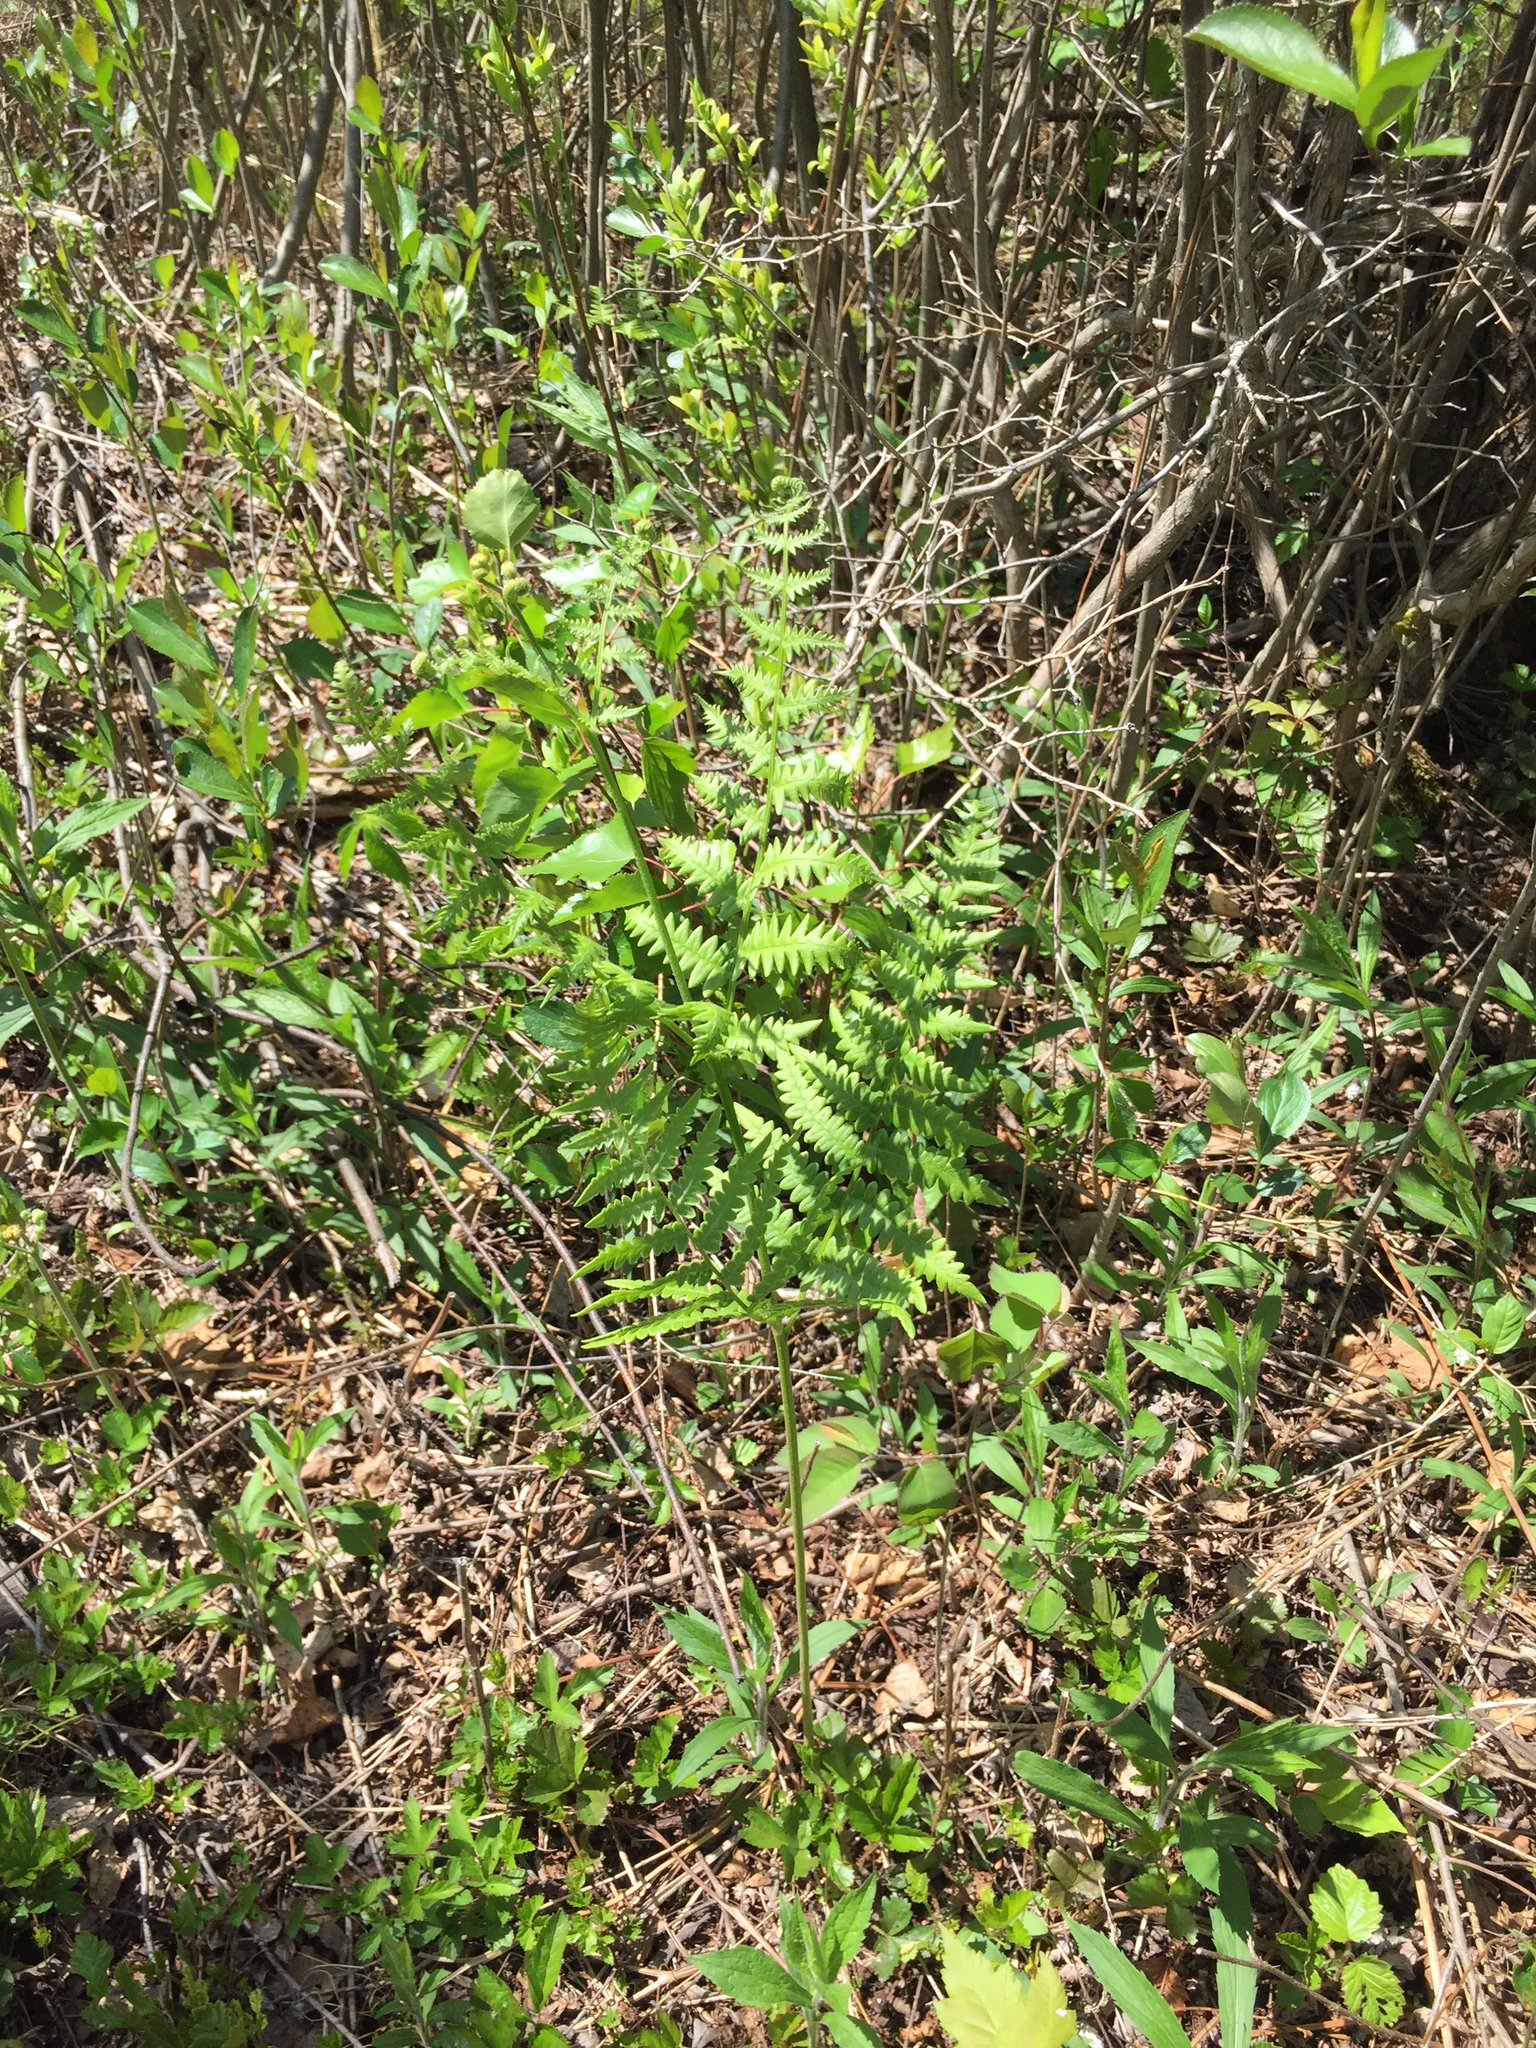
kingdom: Plantae
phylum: Tracheophyta
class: Polypodiopsida
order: Polypodiales
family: Dennstaedtiaceae
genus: Pteridium
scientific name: Pteridium aquilinum
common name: Bracken
